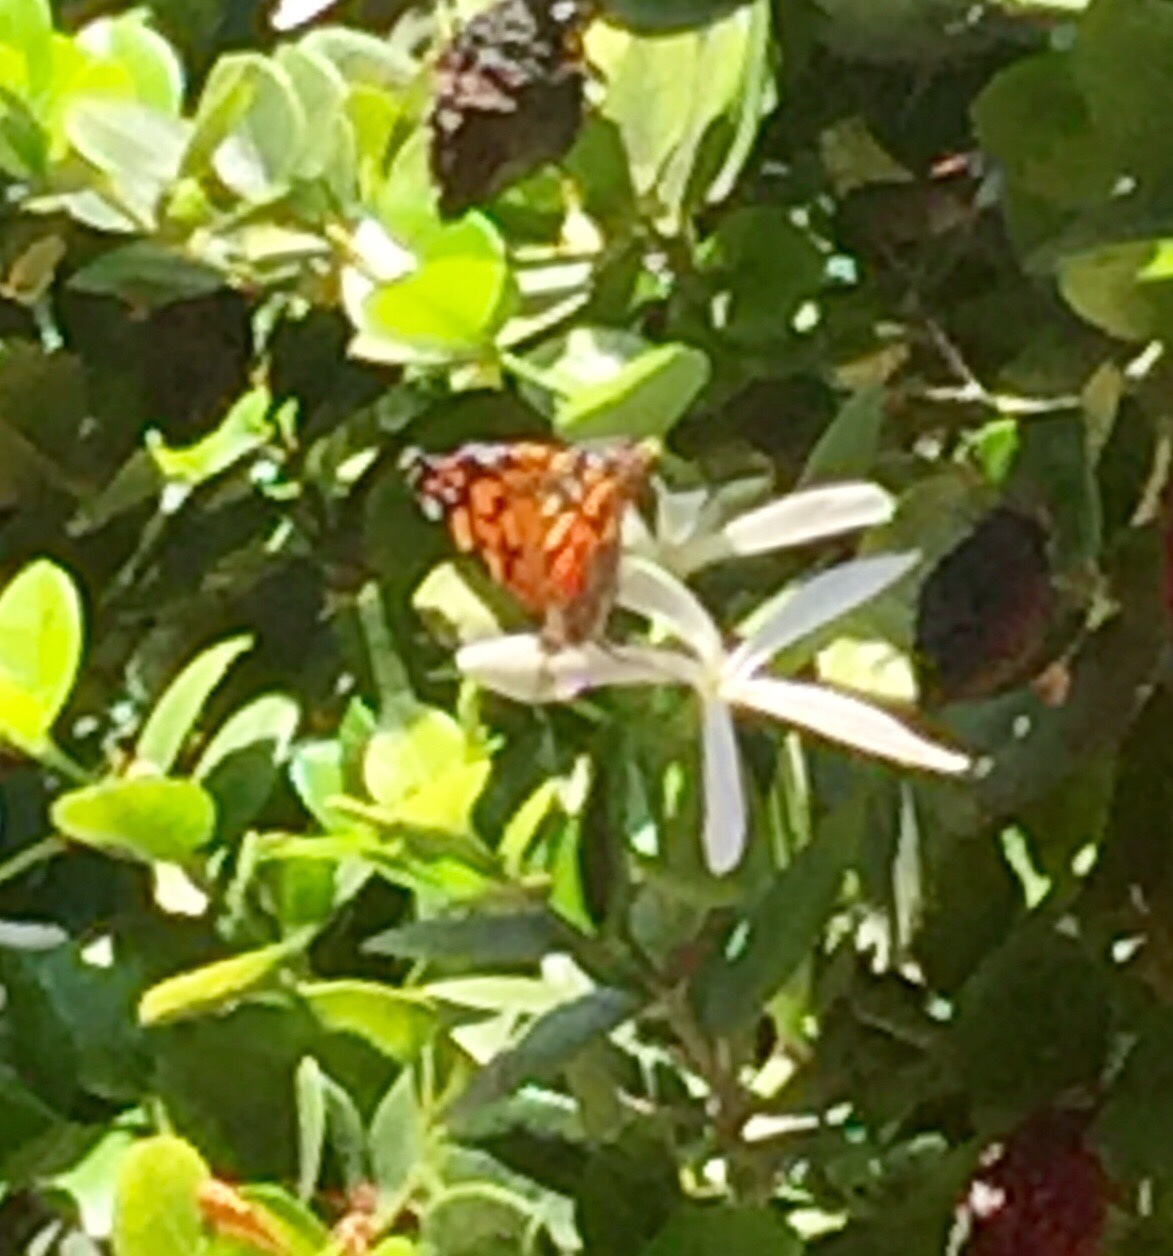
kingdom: Animalia
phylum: Arthropoda
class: Insecta
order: Lepidoptera
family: Nymphalidae
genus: Vanessa
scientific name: Vanessa annabella
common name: West coast lady
